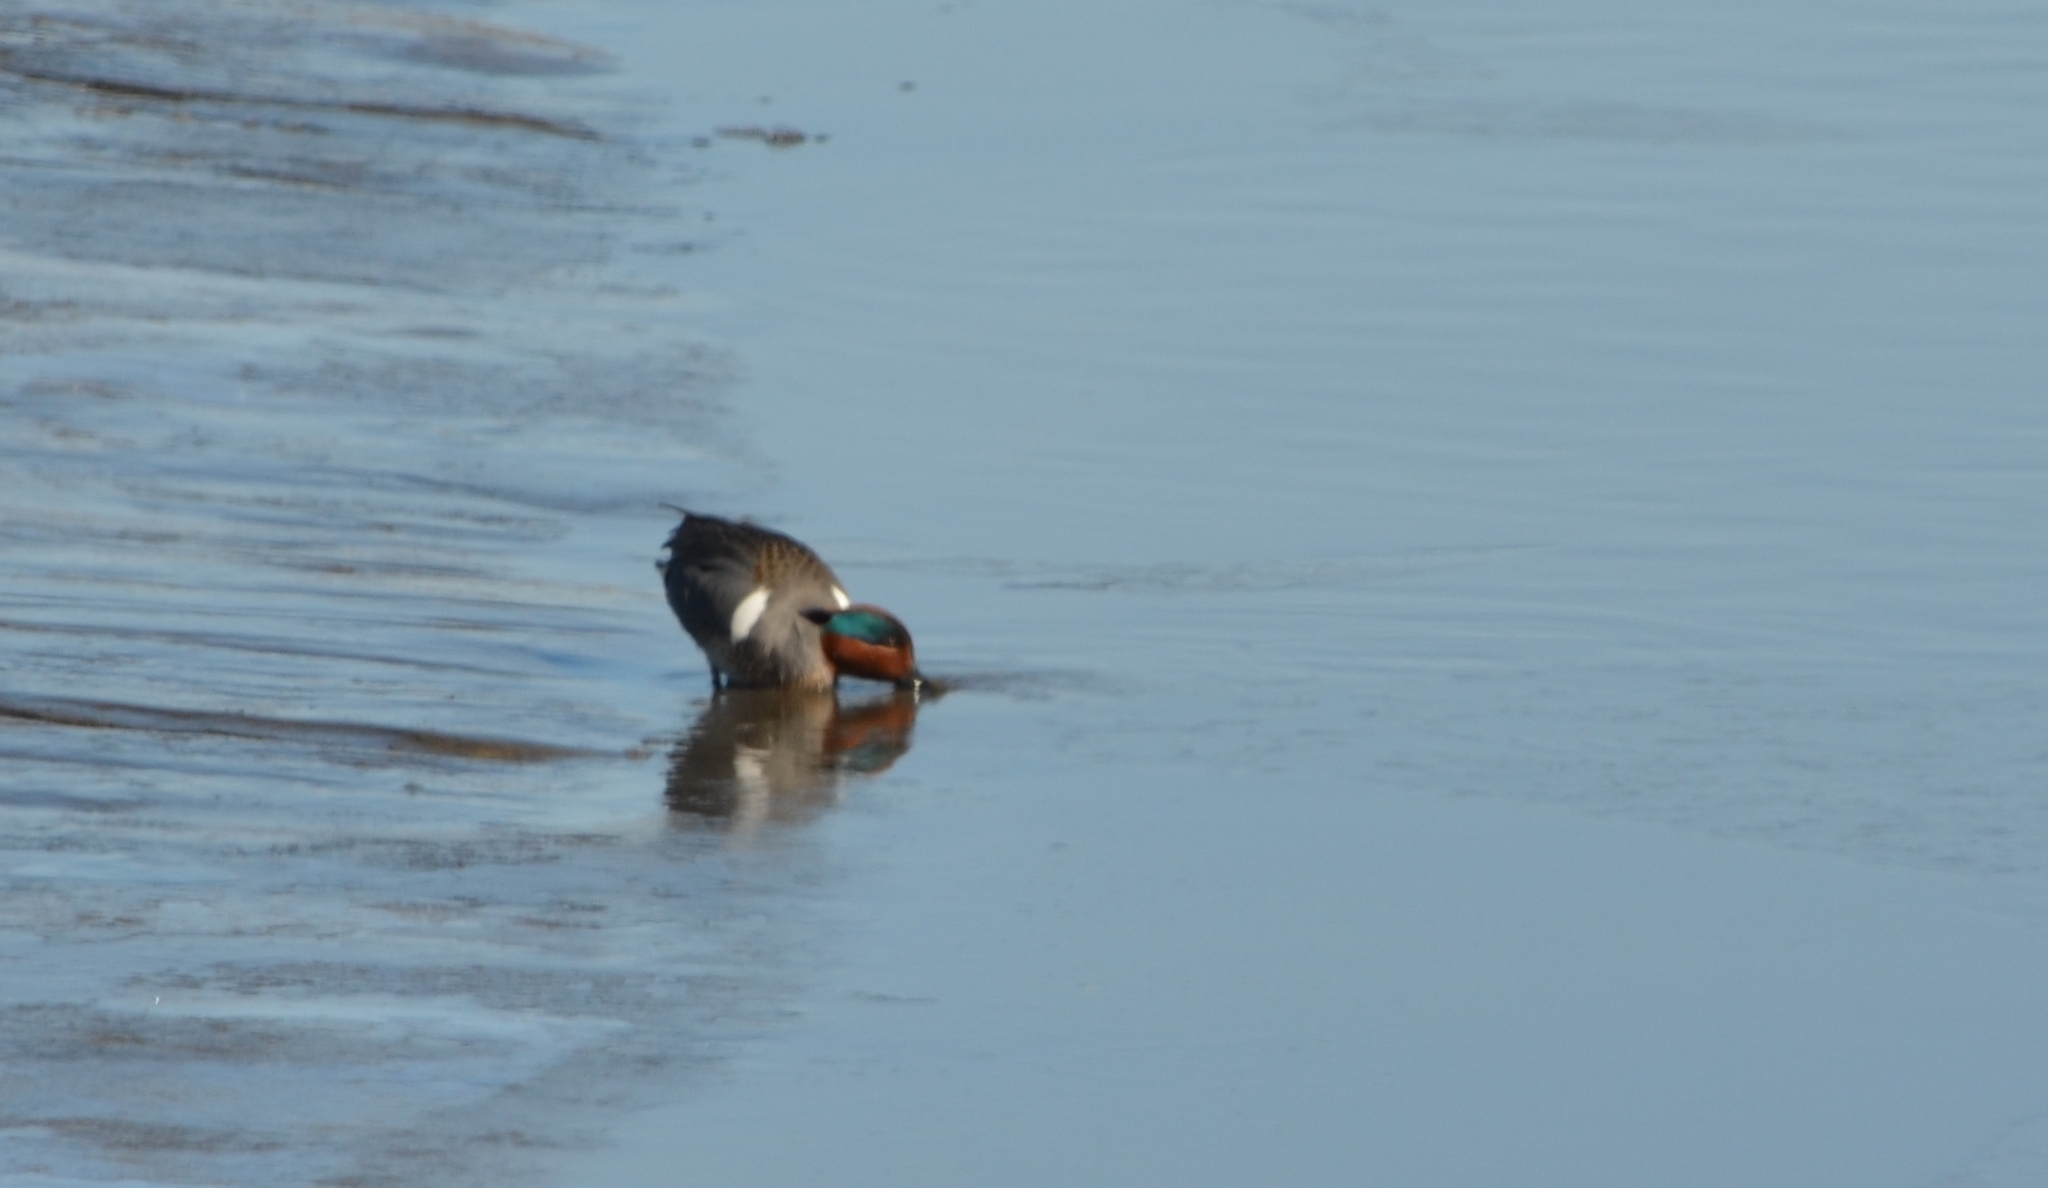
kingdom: Animalia
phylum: Chordata
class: Aves
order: Anseriformes
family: Anatidae
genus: Anas
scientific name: Anas crecca
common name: Eurasian teal
